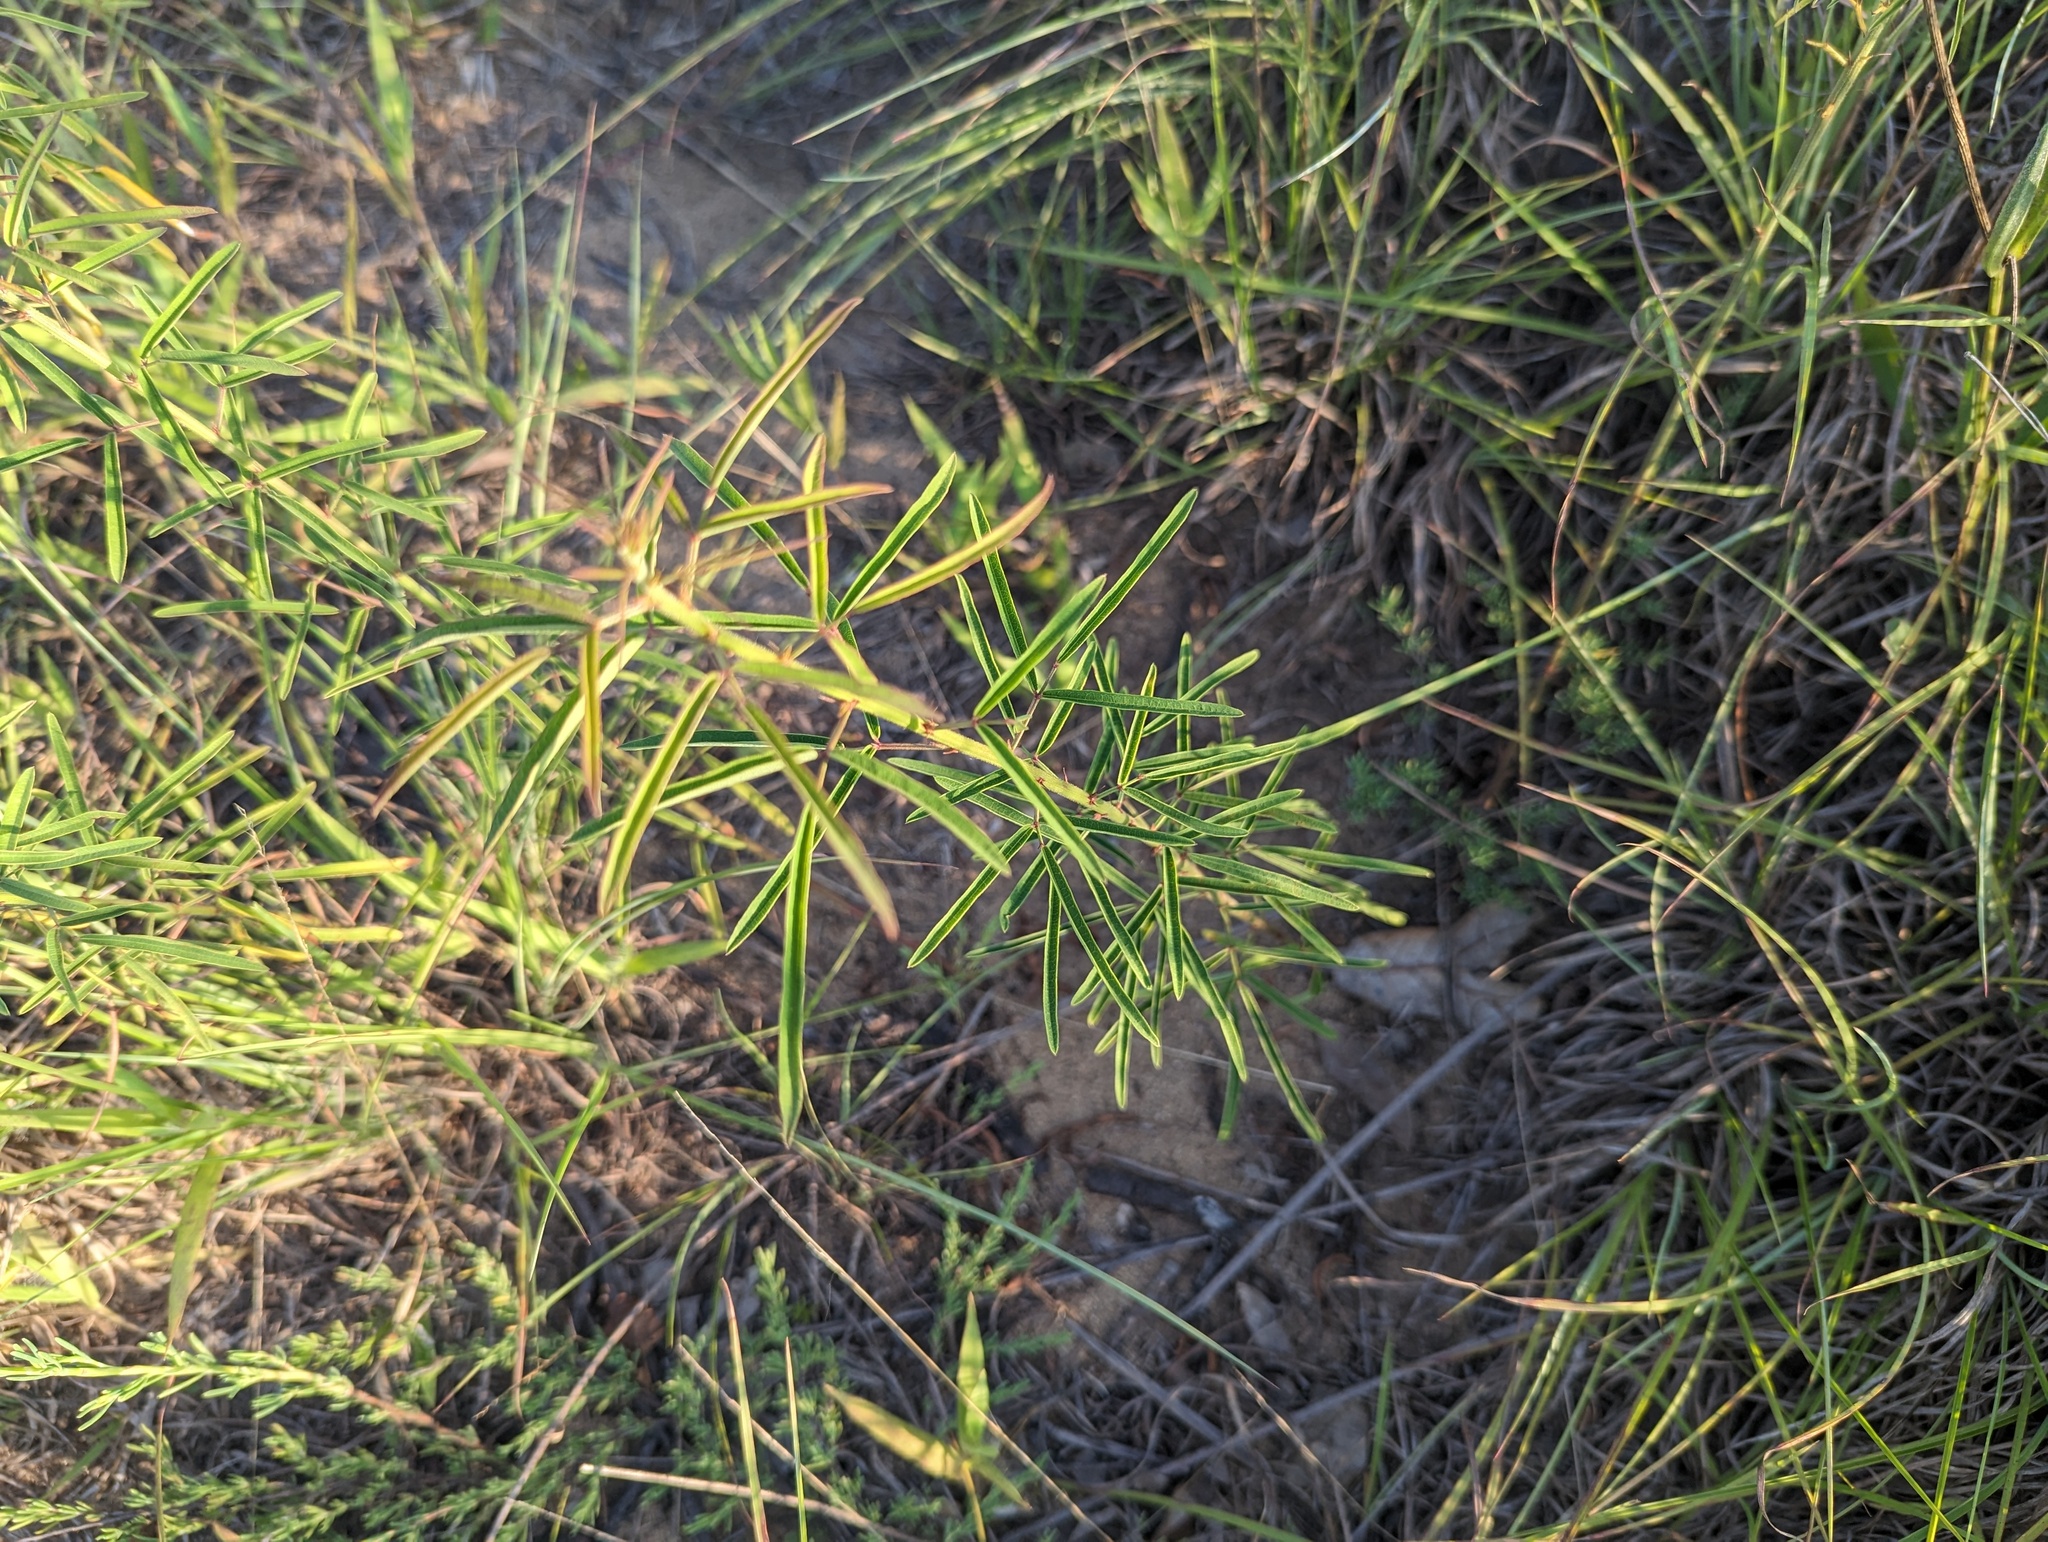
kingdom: Plantae
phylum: Tracheophyta
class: Magnoliopsida
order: Fabales
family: Fabaceae
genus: Desmodium
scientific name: Desmodium strictum
